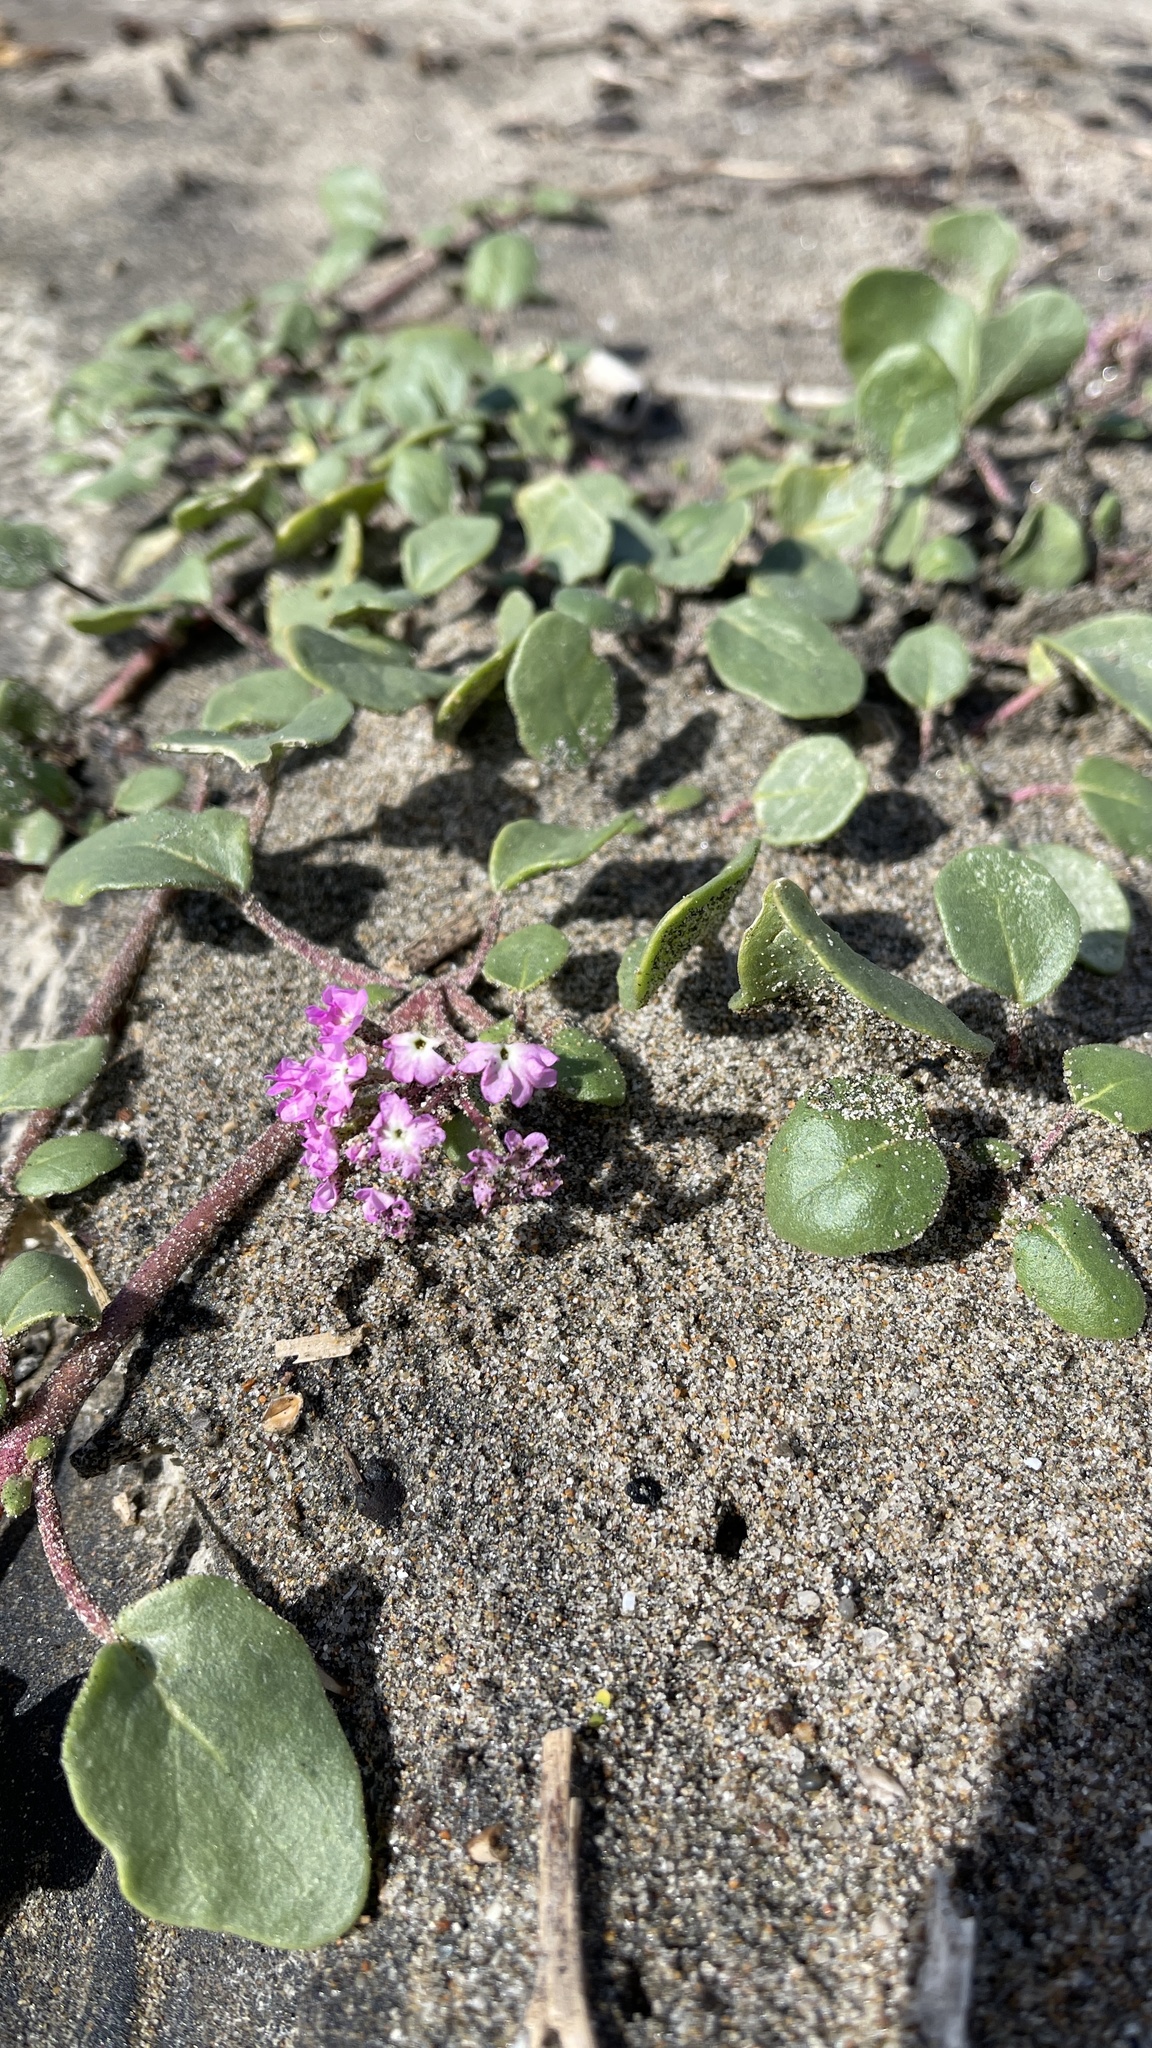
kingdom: Plantae
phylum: Tracheophyta
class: Magnoliopsida
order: Caryophyllales
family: Nyctaginaceae
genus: Abronia
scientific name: Abronia umbellata
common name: Sand-verbena
